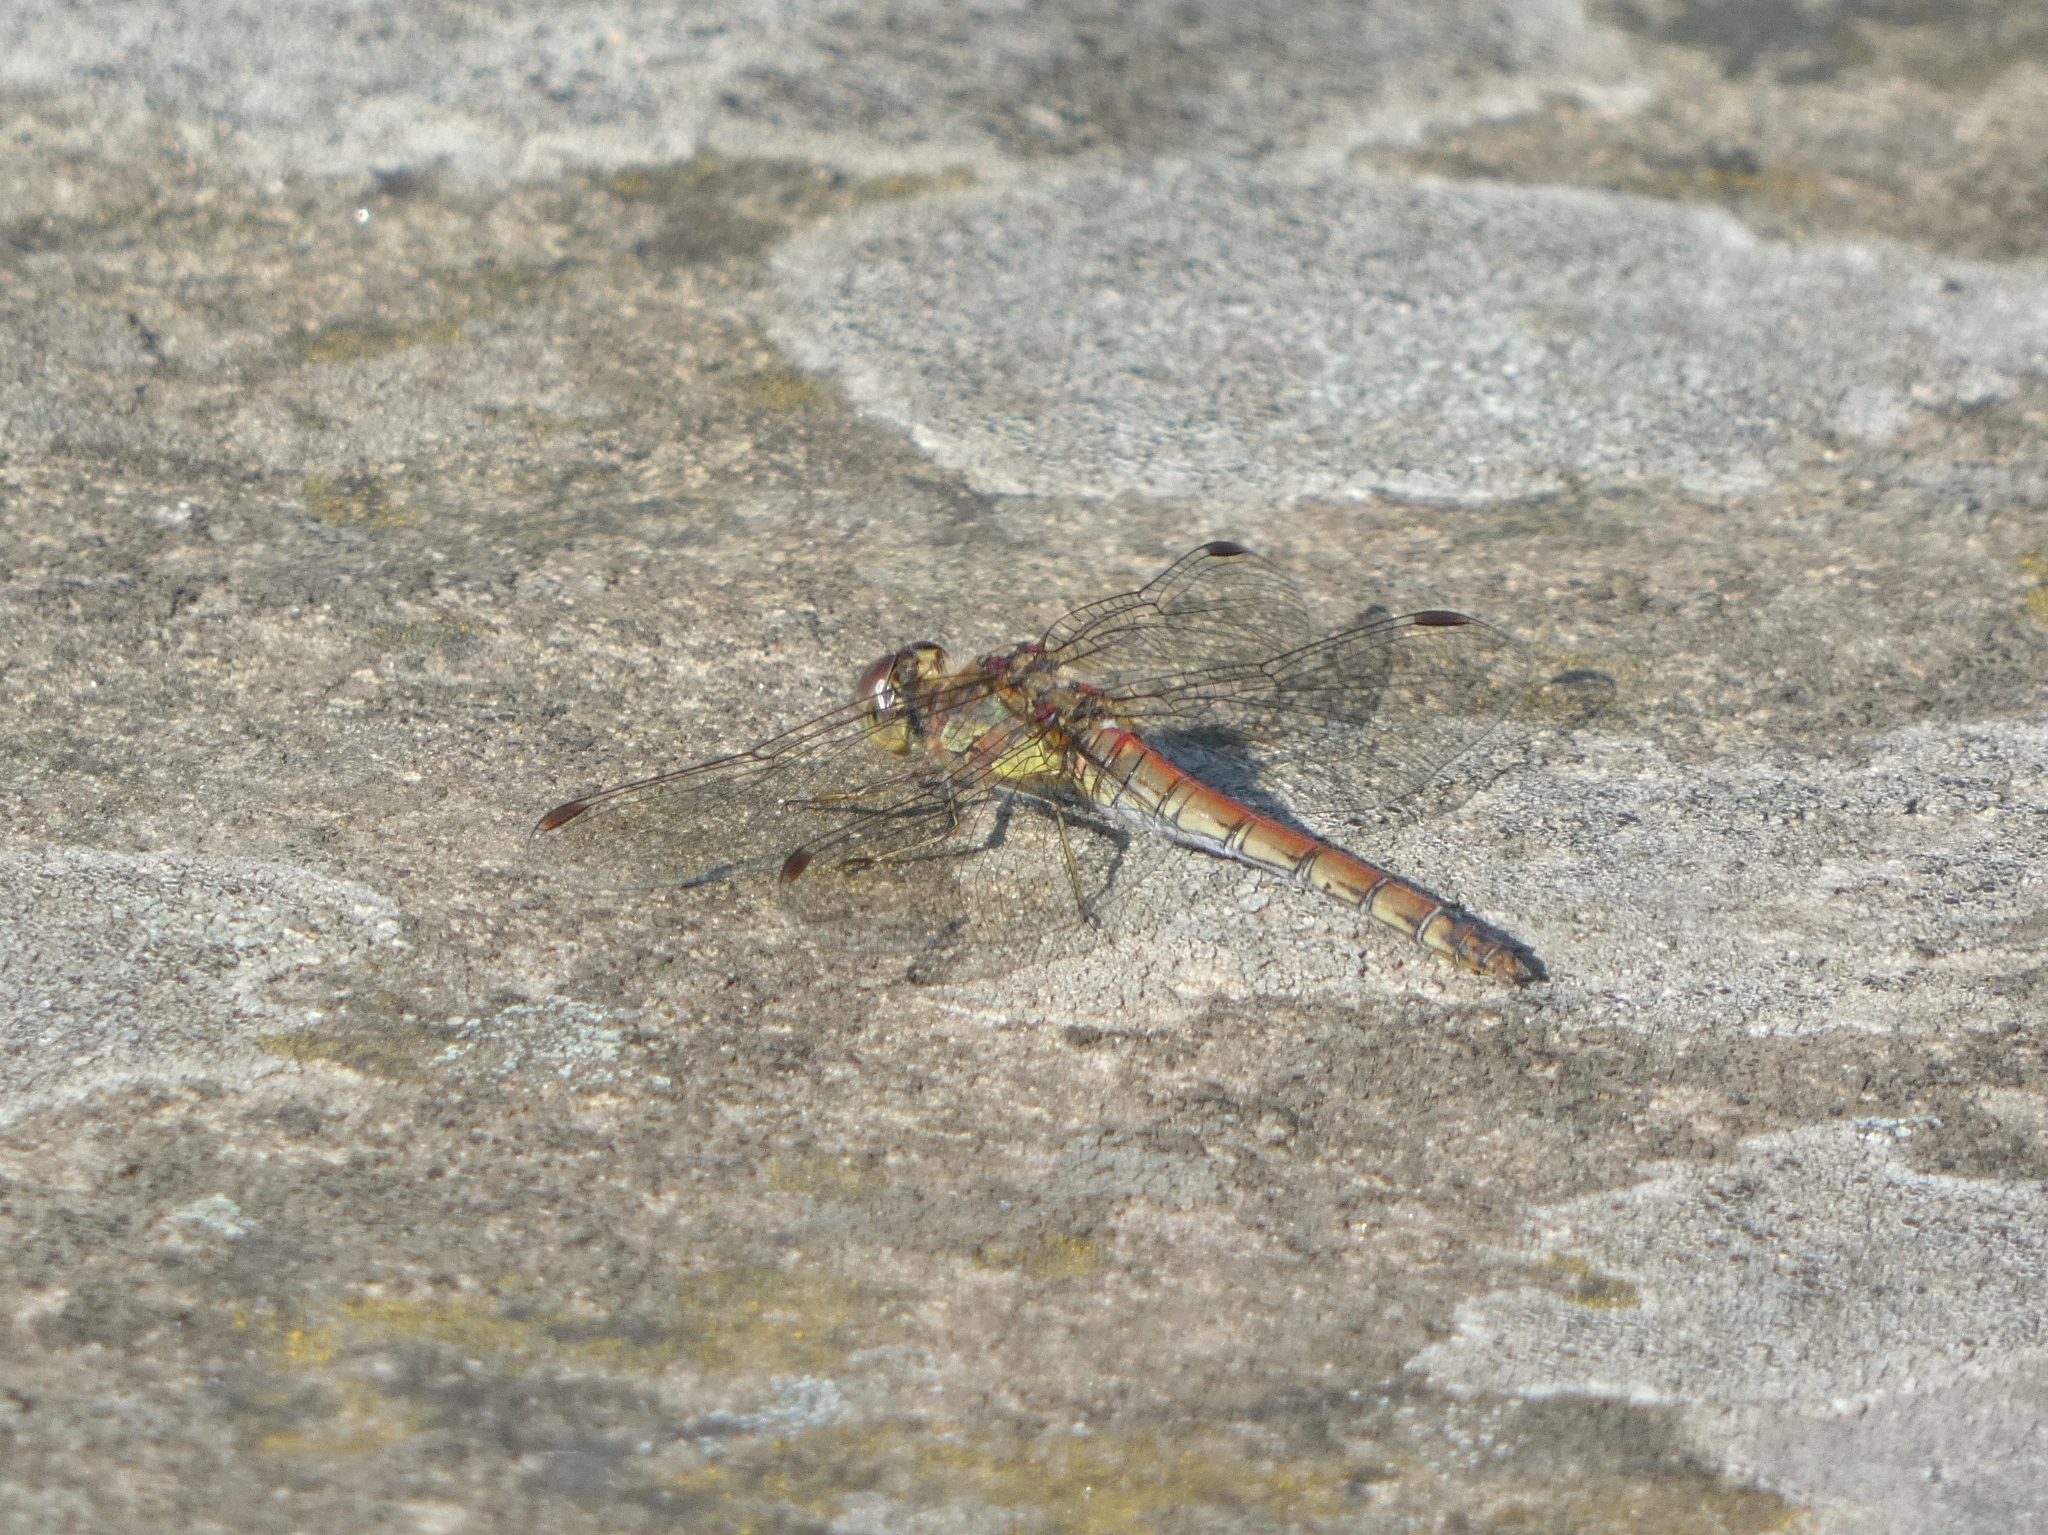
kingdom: Animalia
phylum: Arthropoda
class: Insecta
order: Odonata
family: Libellulidae
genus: Sympetrum
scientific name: Sympetrum striolatum
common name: Common darter
